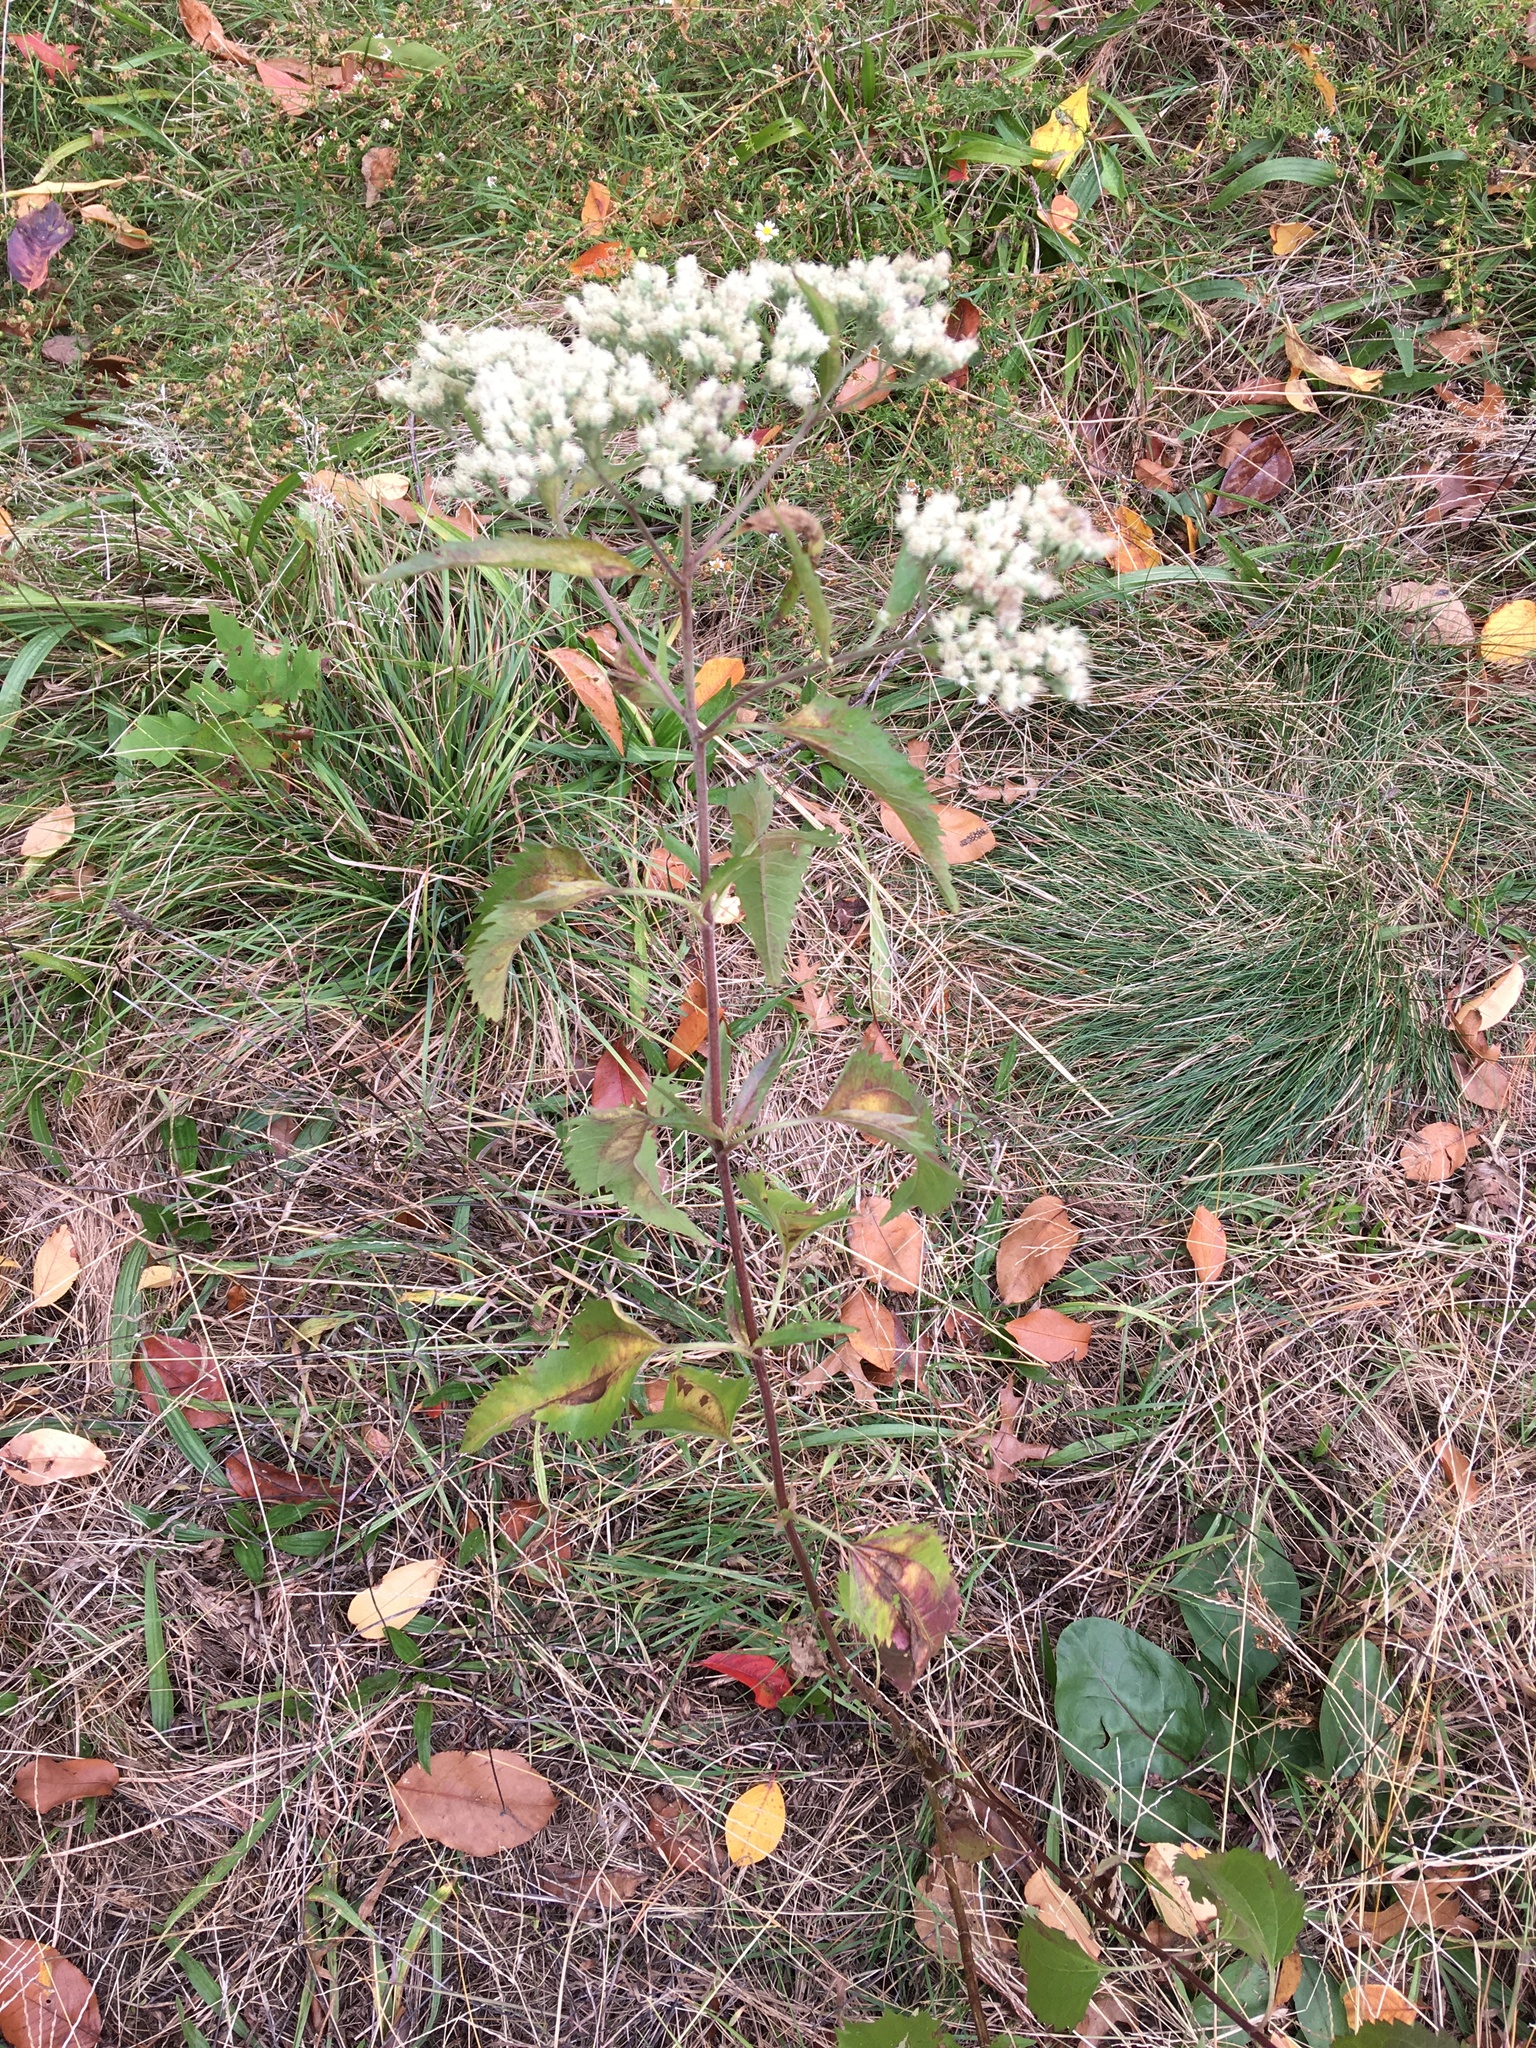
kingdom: Plantae
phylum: Tracheophyta
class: Magnoliopsida
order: Asterales
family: Asteraceae
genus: Eupatorium
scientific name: Eupatorium serotinum
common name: Late boneset
